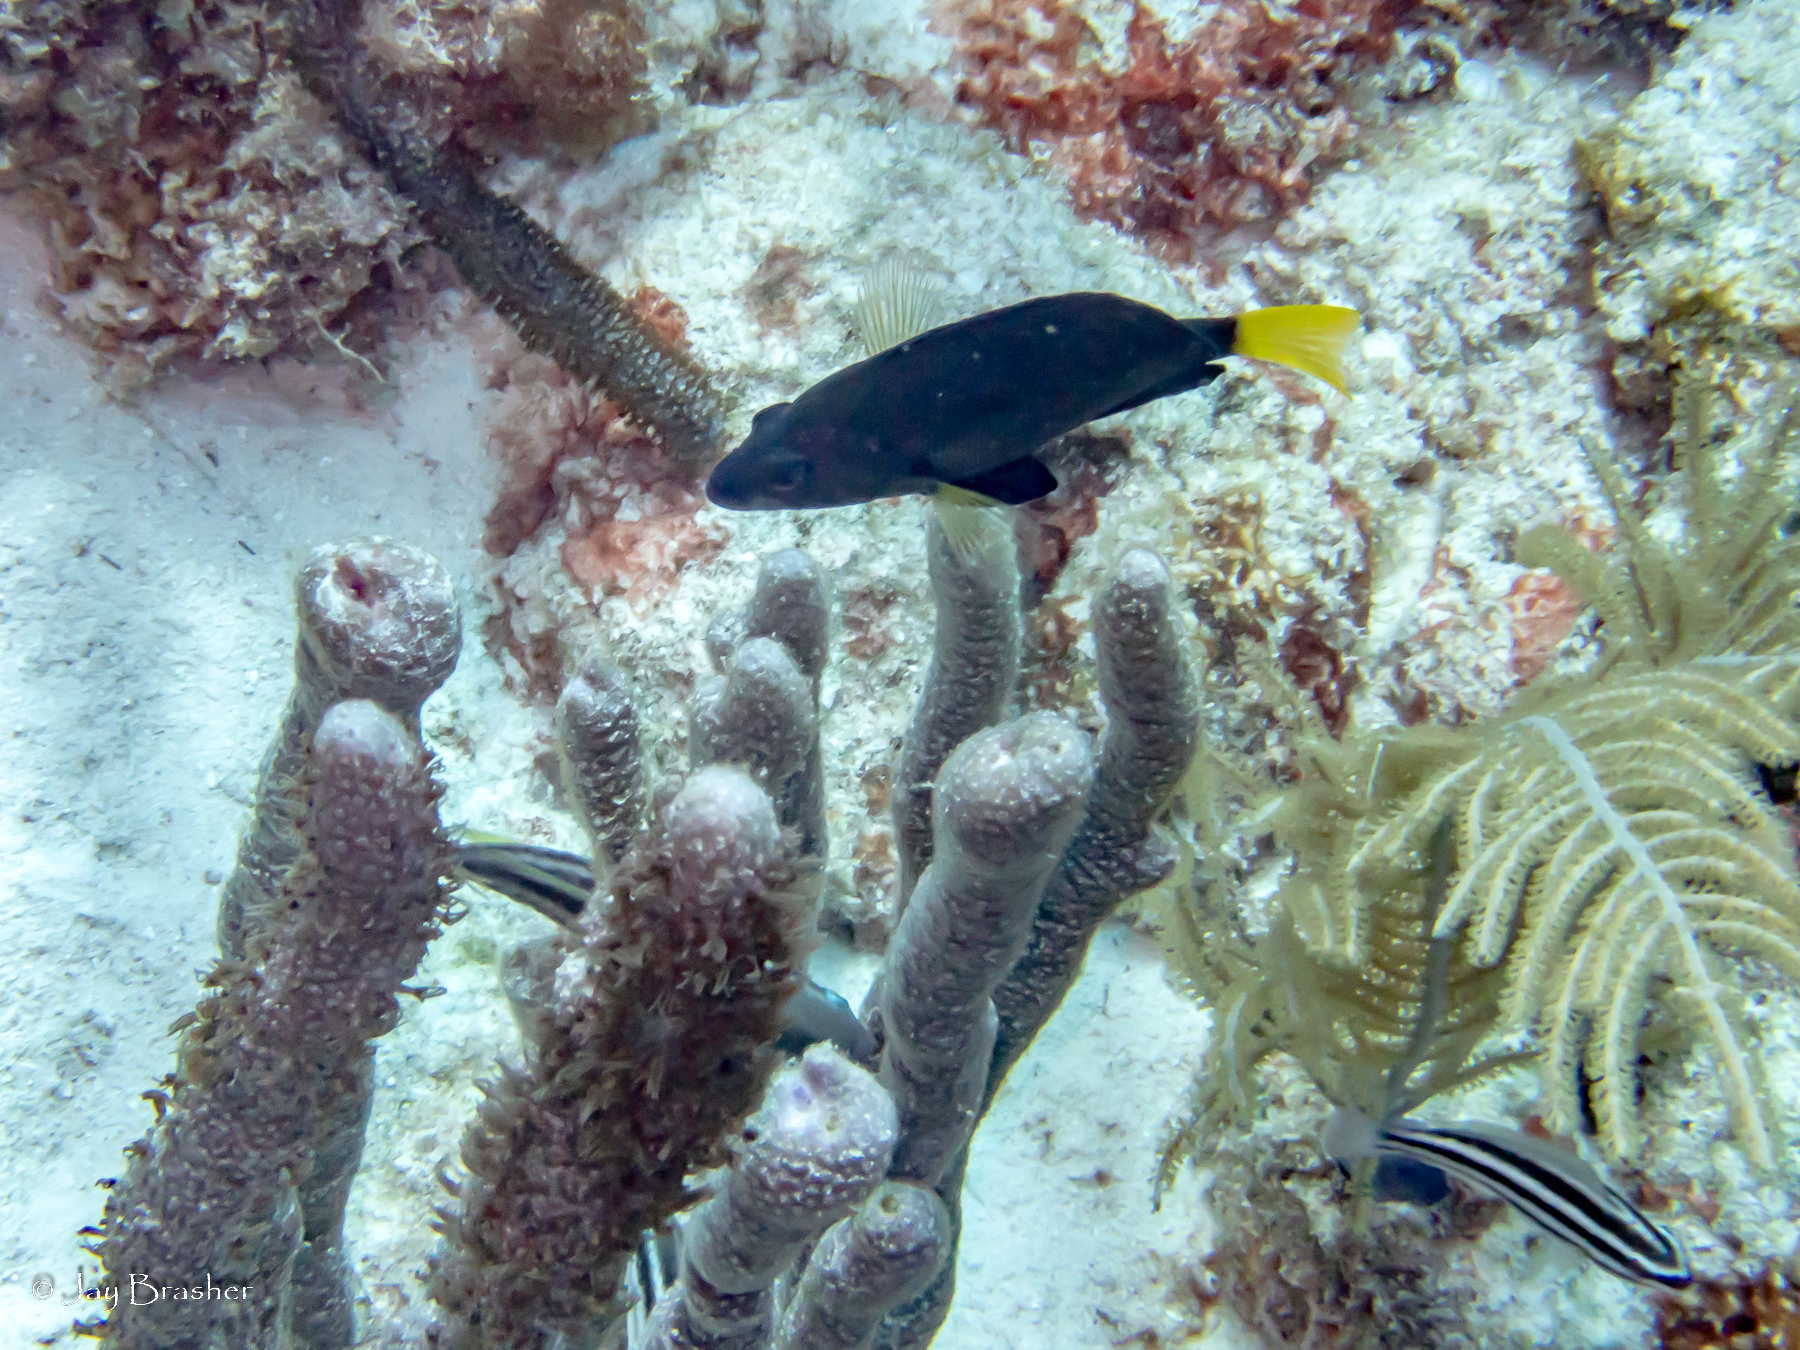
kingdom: Animalia
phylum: Chordata
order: Perciformes
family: Scaridae
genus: Scarus
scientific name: Scarus iseri
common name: Striped parrotfish
